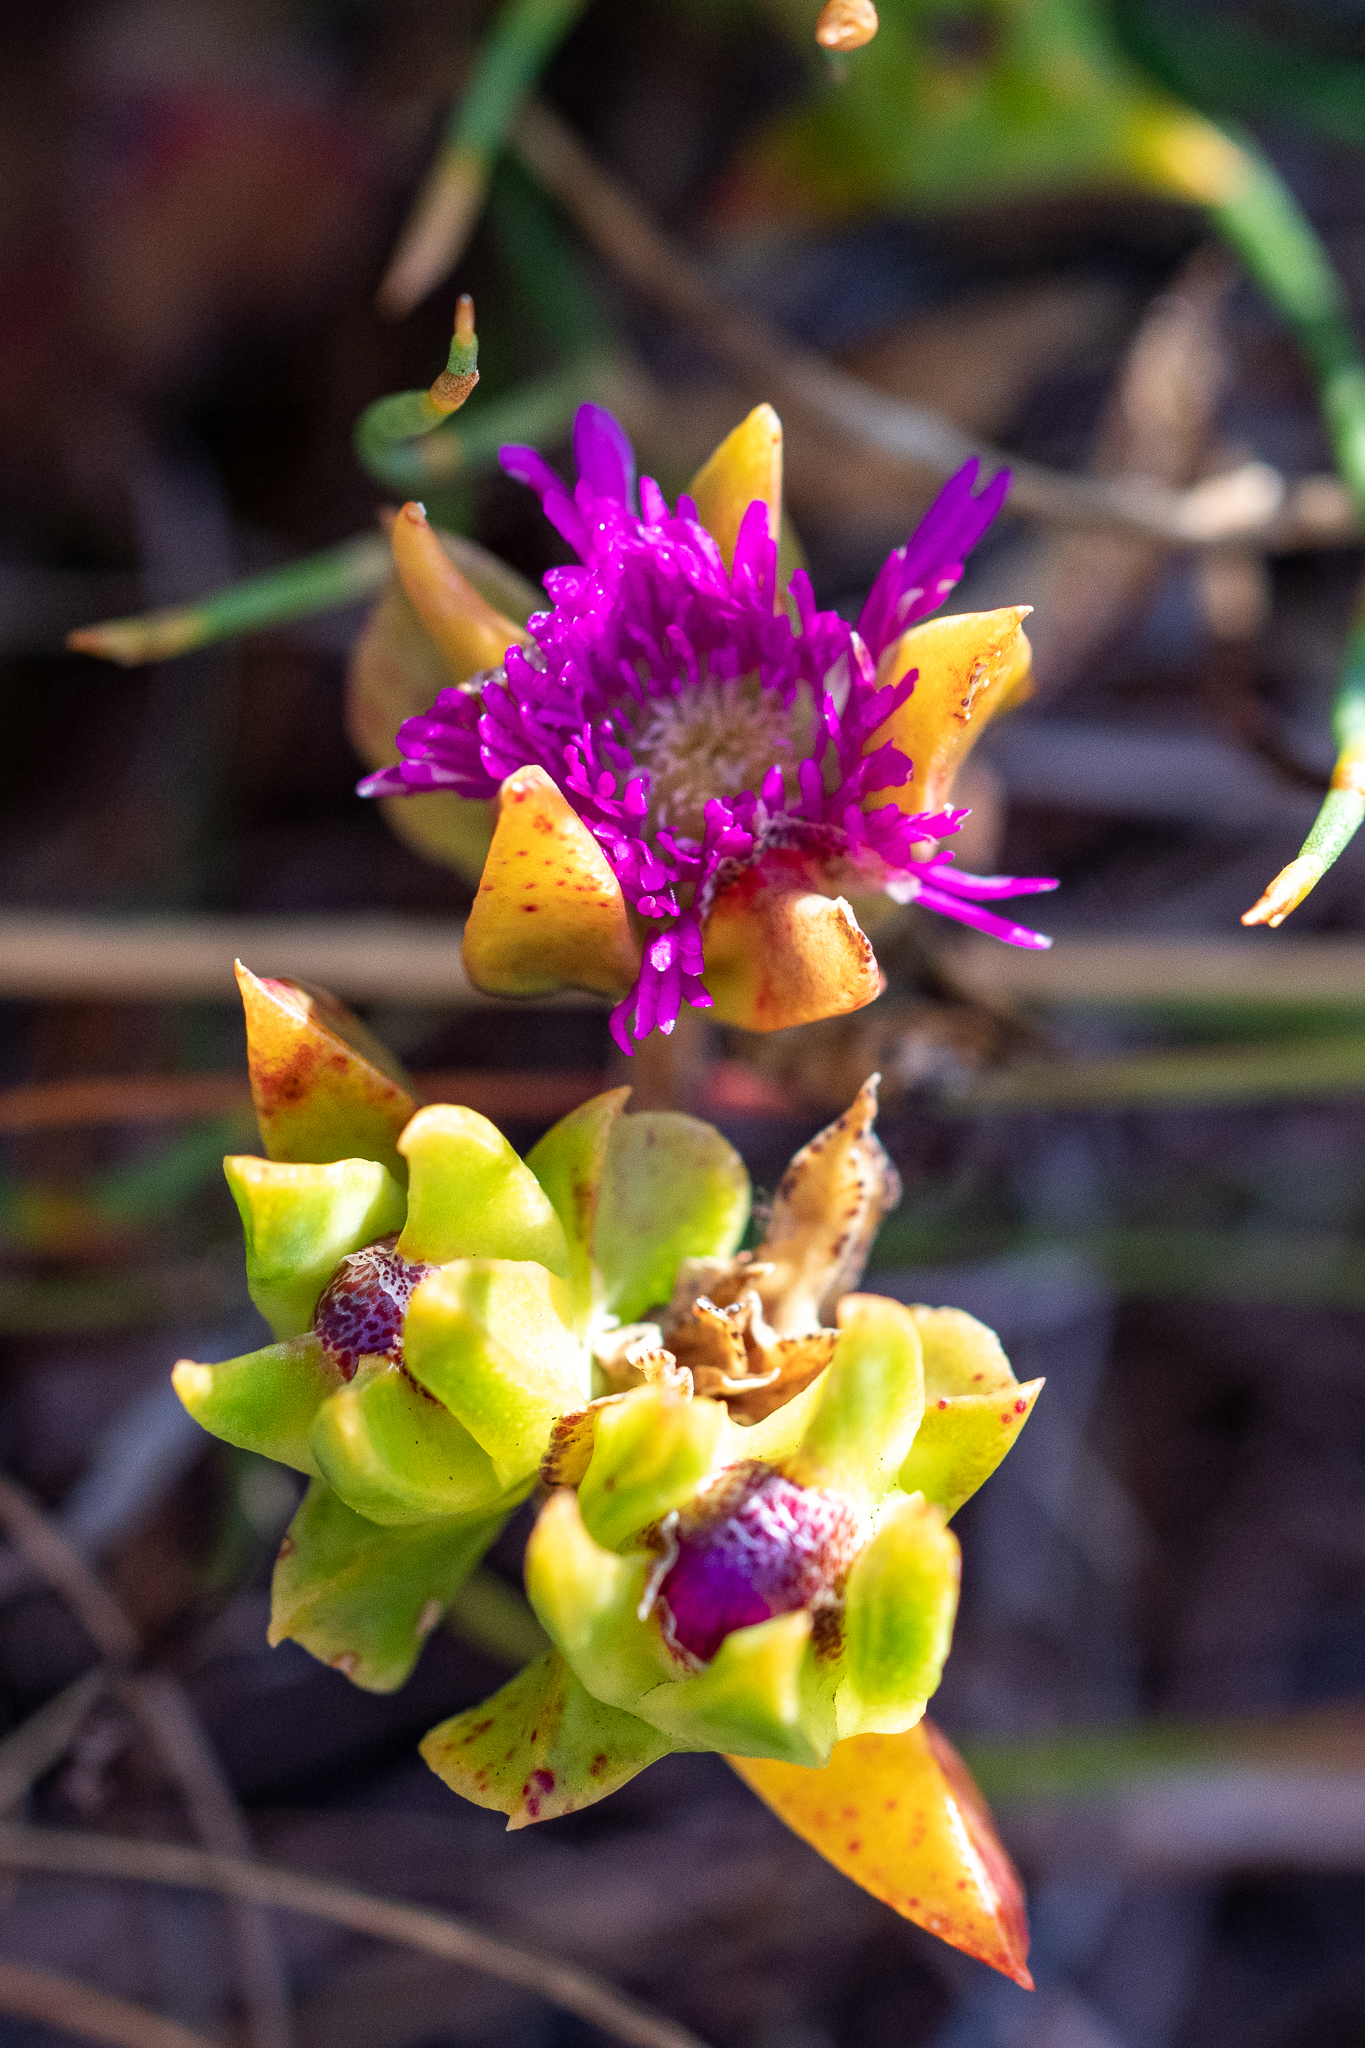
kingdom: Plantae
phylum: Tracheophyta
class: Magnoliopsida
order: Caryophyllales
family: Aizoaceae
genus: Erepsia
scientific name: Erepsia steytlerae
